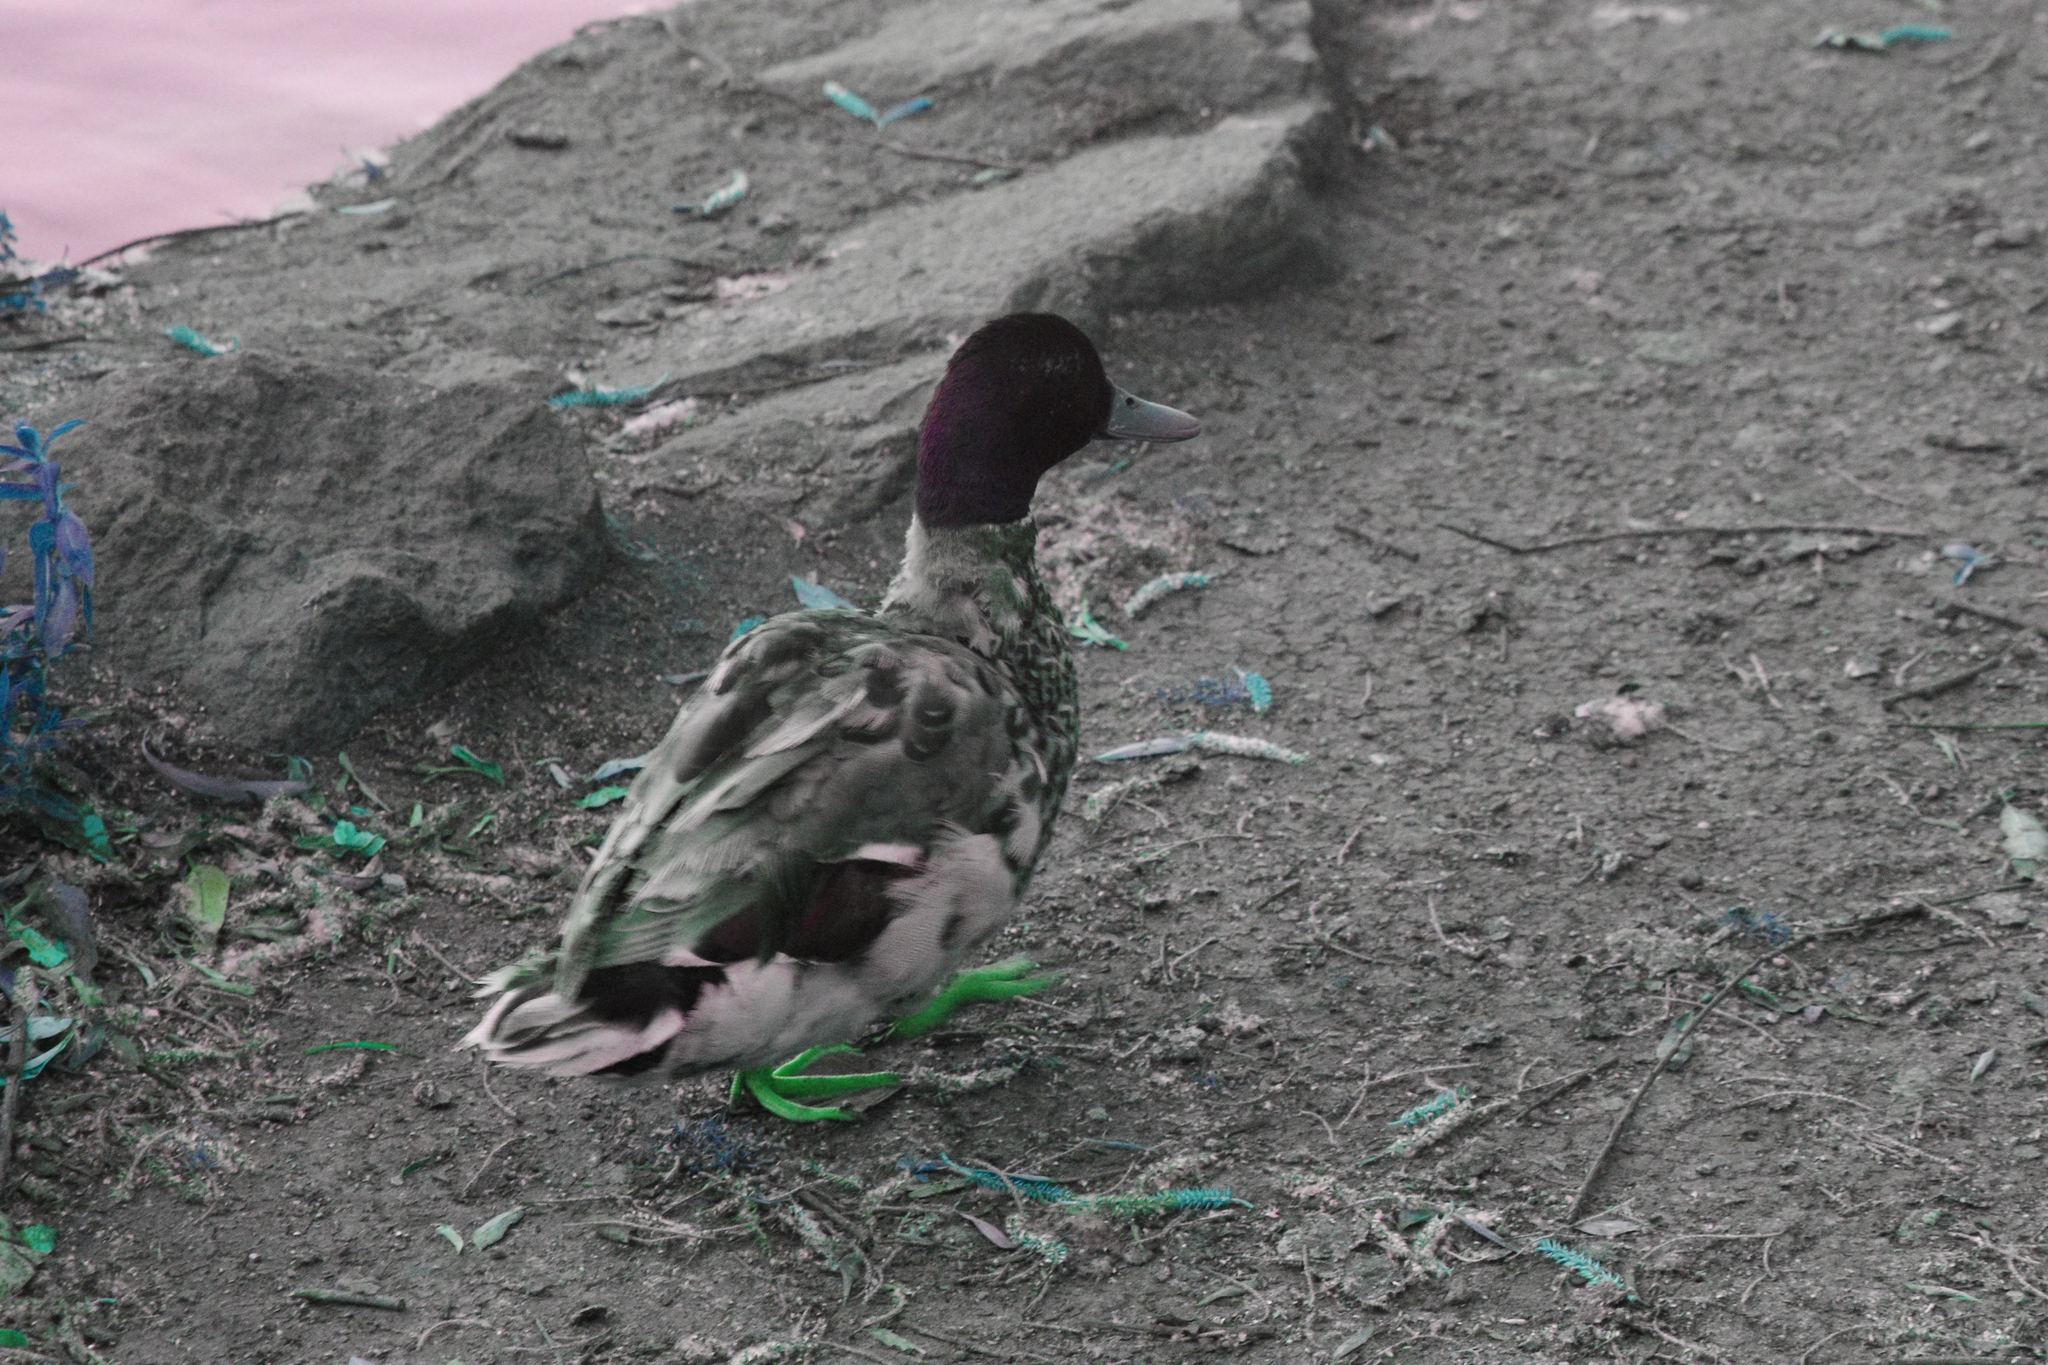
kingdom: Animalia
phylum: Chordata
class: Aves
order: Anseriformes
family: Anatidae
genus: Anas
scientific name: Anas platyrhynchos
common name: Mallard
